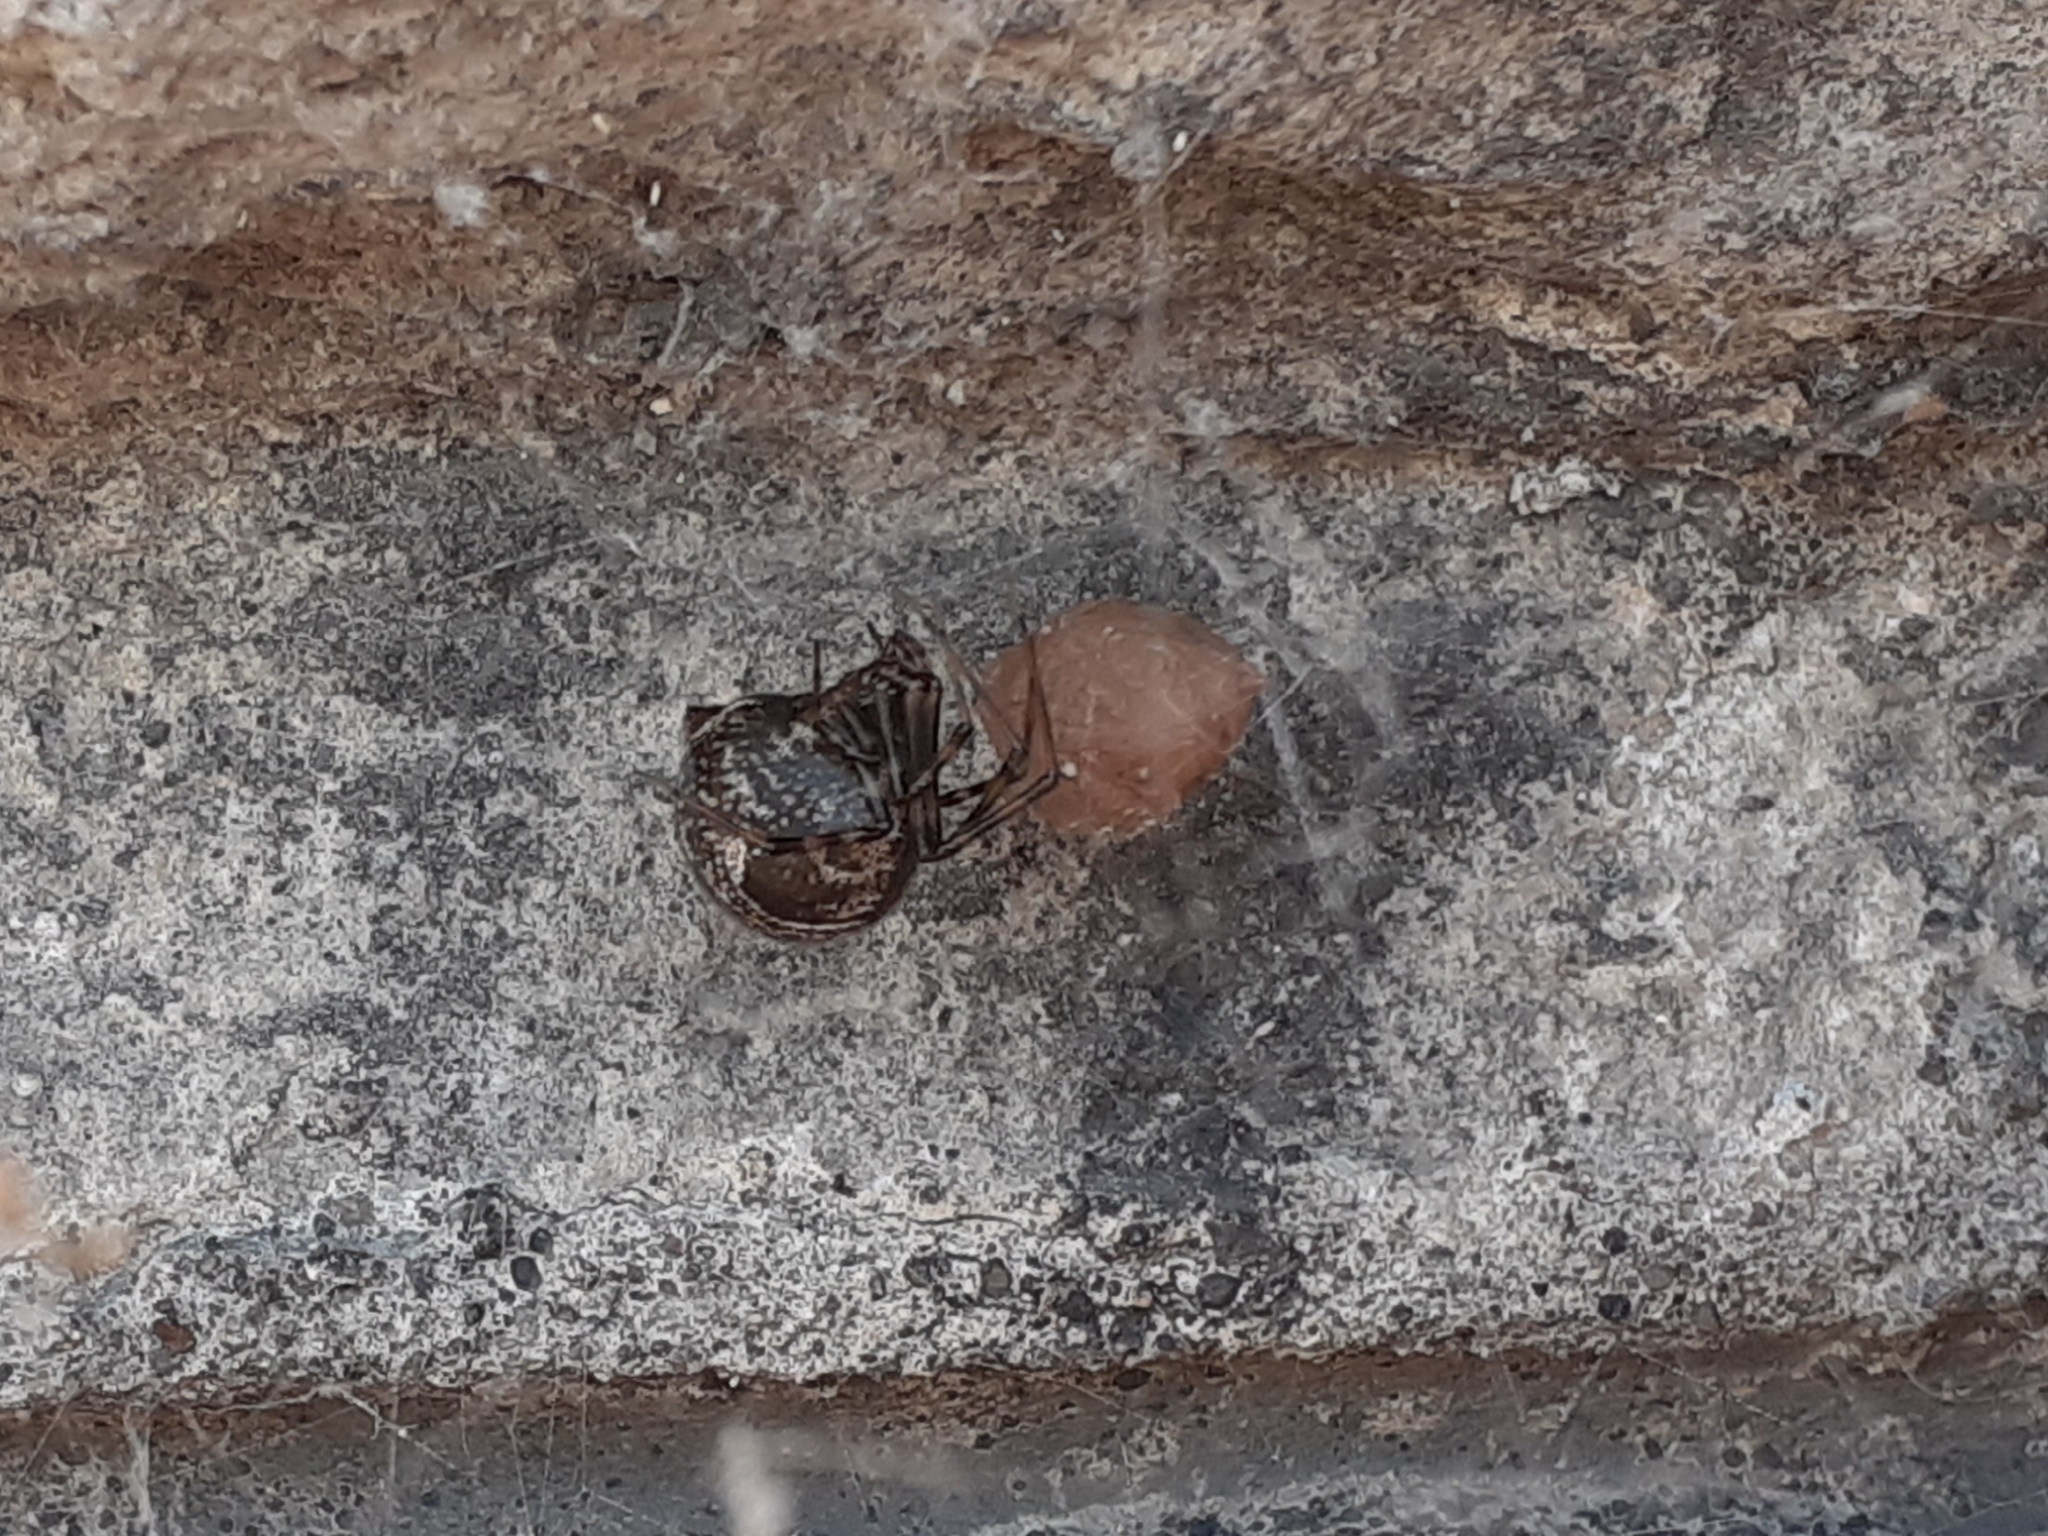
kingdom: Animalia
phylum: Arthropoda
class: Arachnida
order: Araneae
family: Theridiidae
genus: Parasteatoda
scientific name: Parasteatoda tepidariorum
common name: Common house spider
